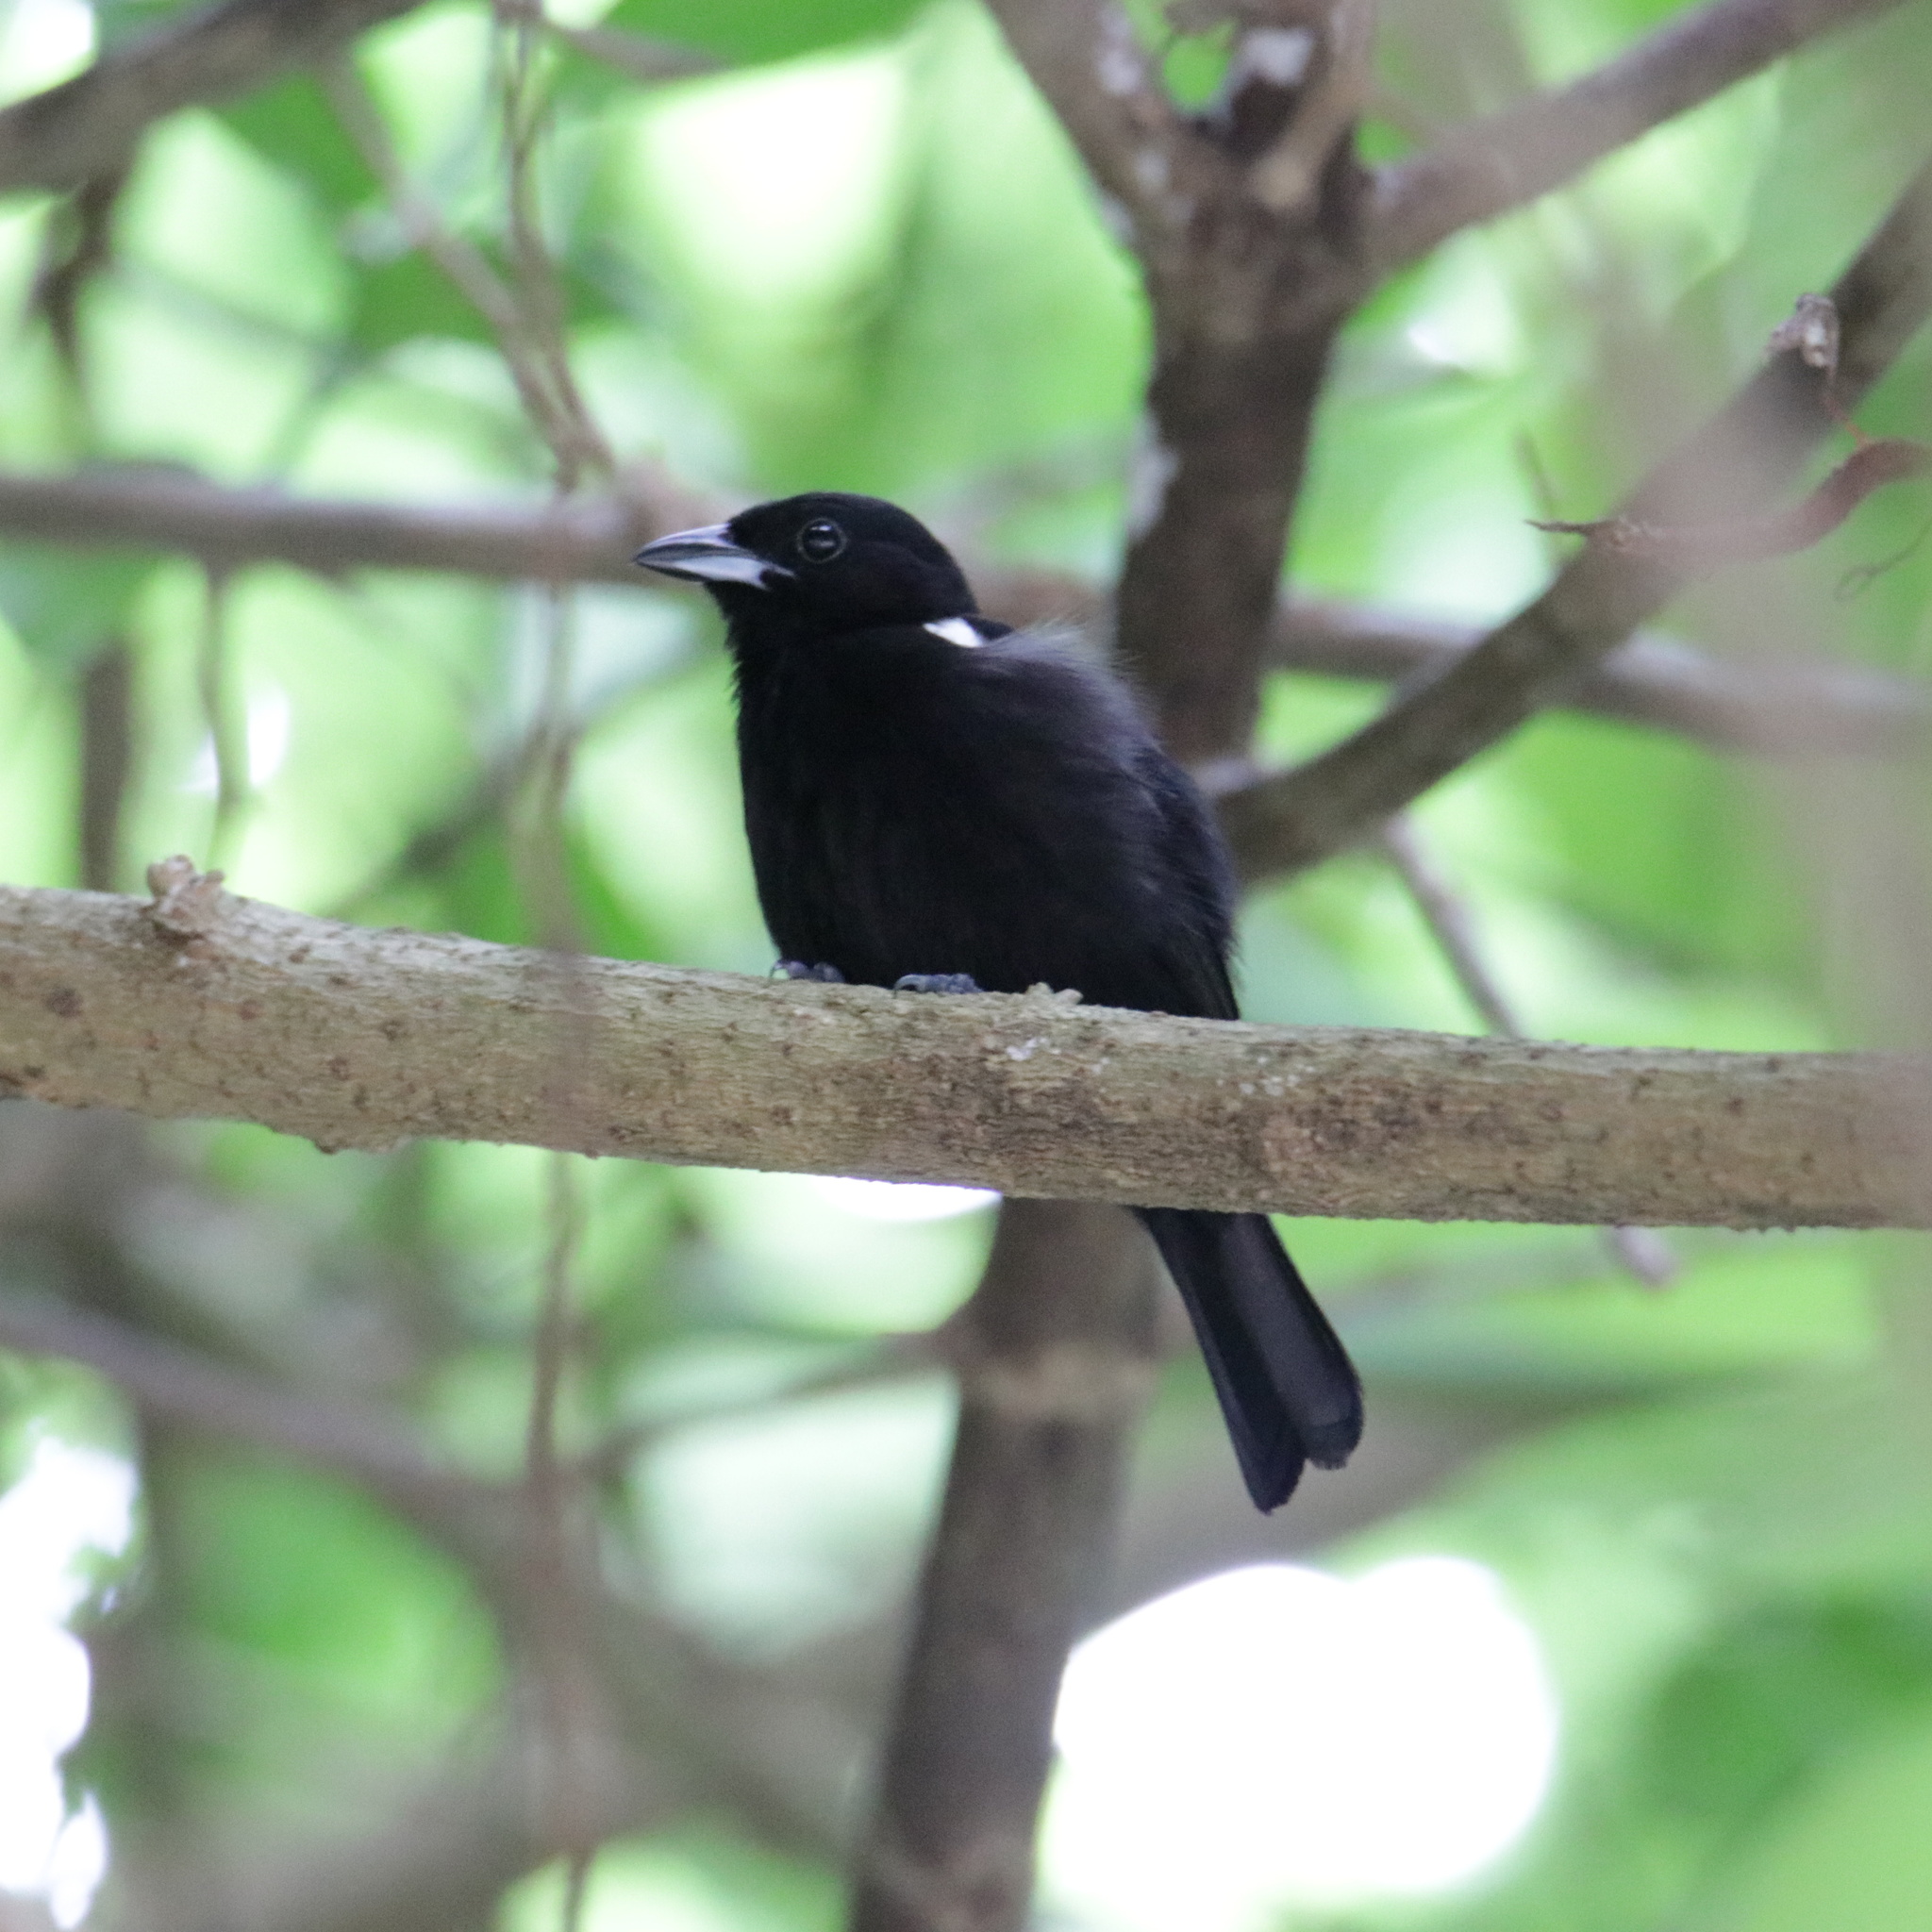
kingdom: Animalia
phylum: Chordata
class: Aves
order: Passeriformes
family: Thraupidae
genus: Loriotus
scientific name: Loriotus luctuosus
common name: White-shouldered tanager
